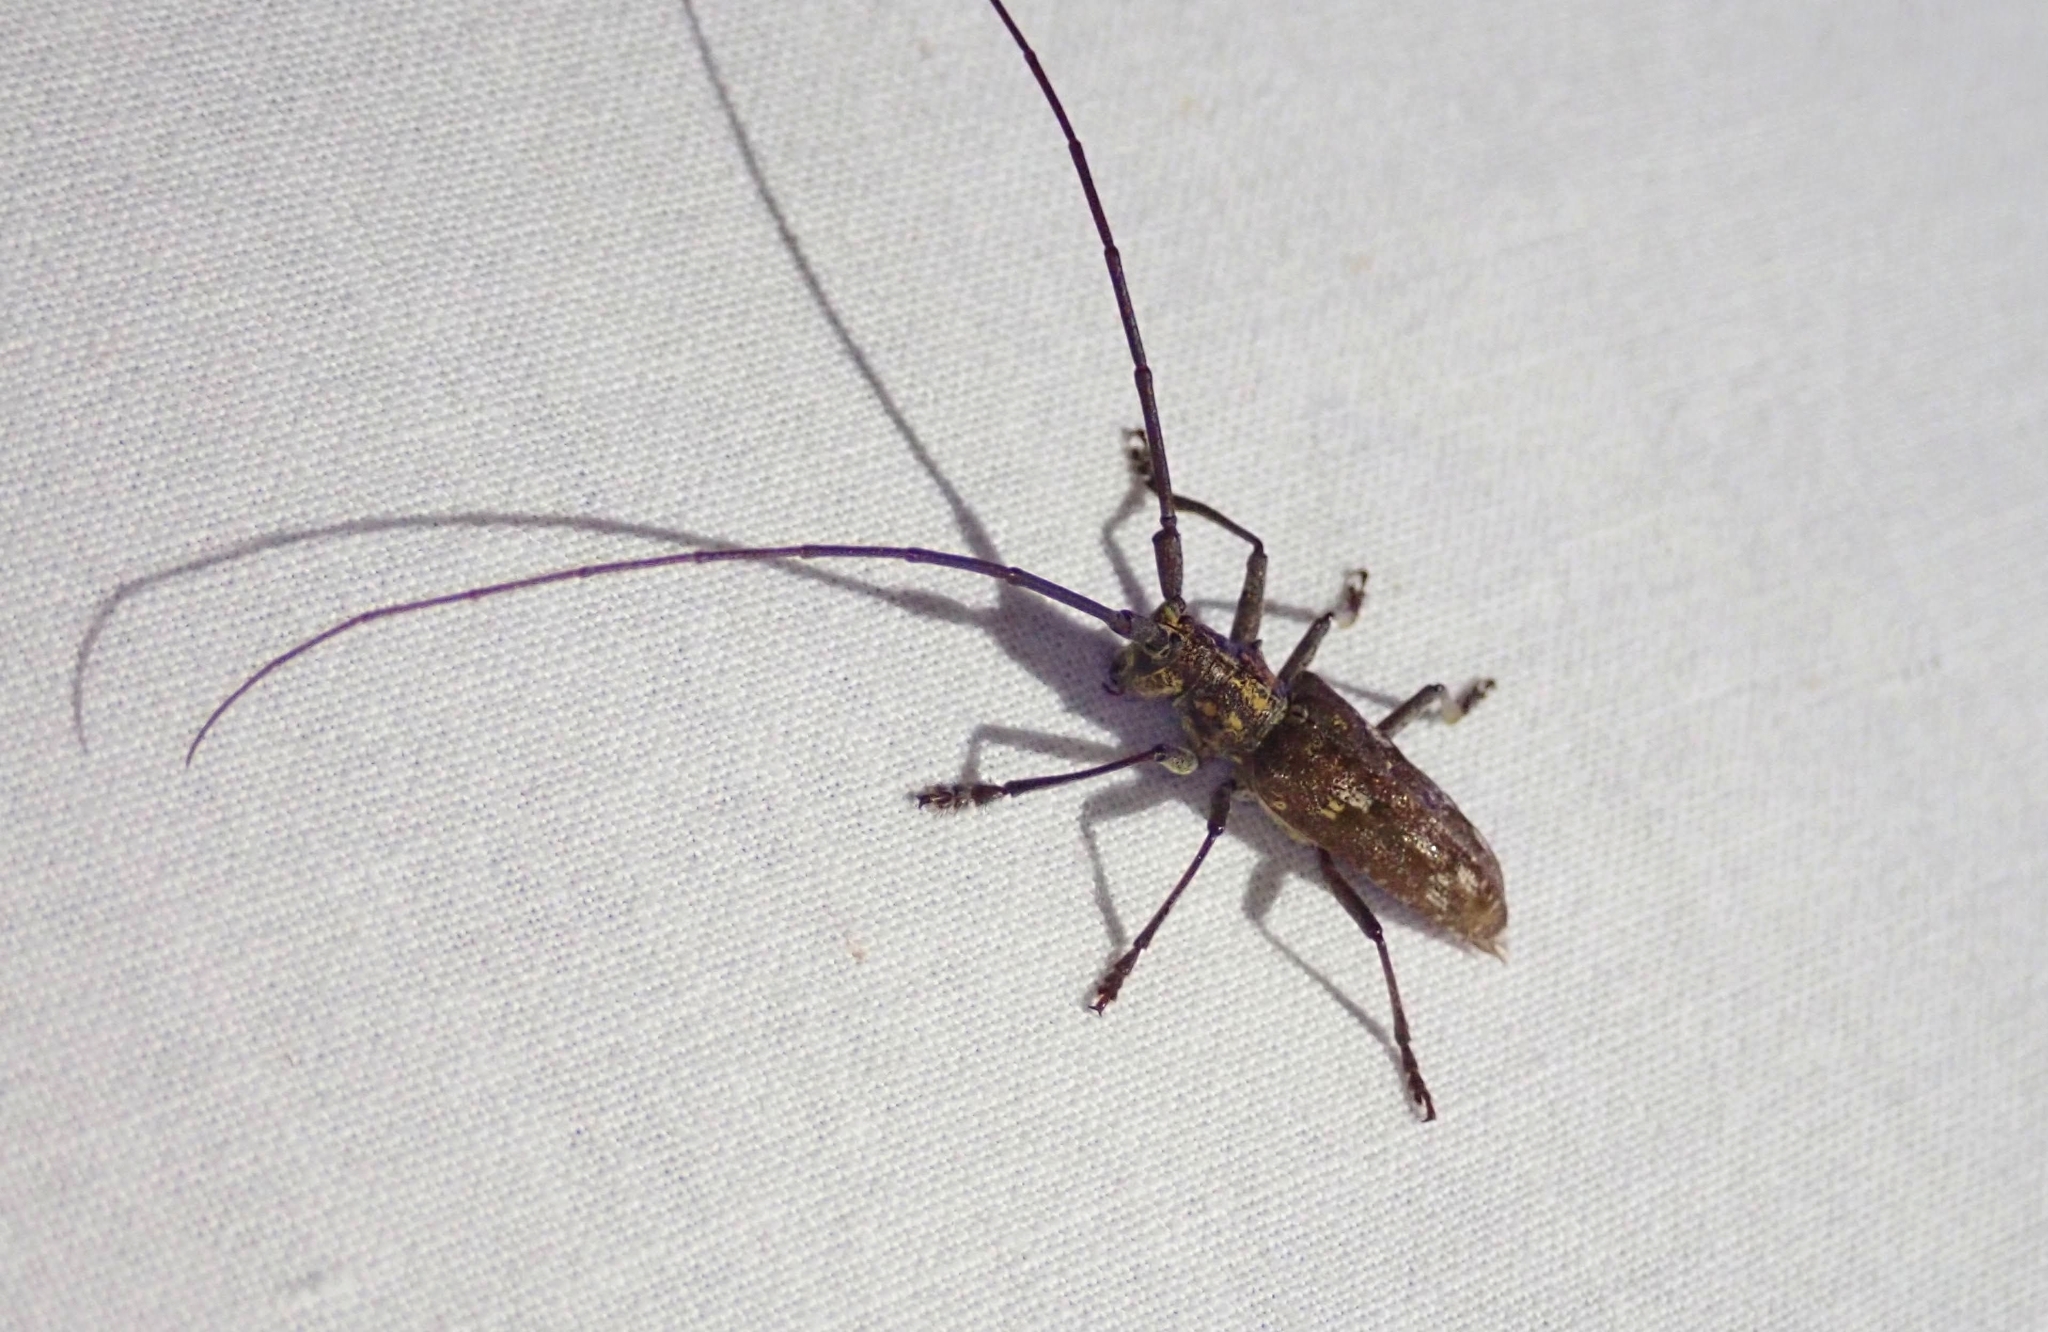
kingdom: Animalia
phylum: Arthropoda
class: Insecta
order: Coleoptera
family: Cerambycidae
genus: Monochamus
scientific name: Monochamus carolinensis
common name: Carolina pine sawyer
